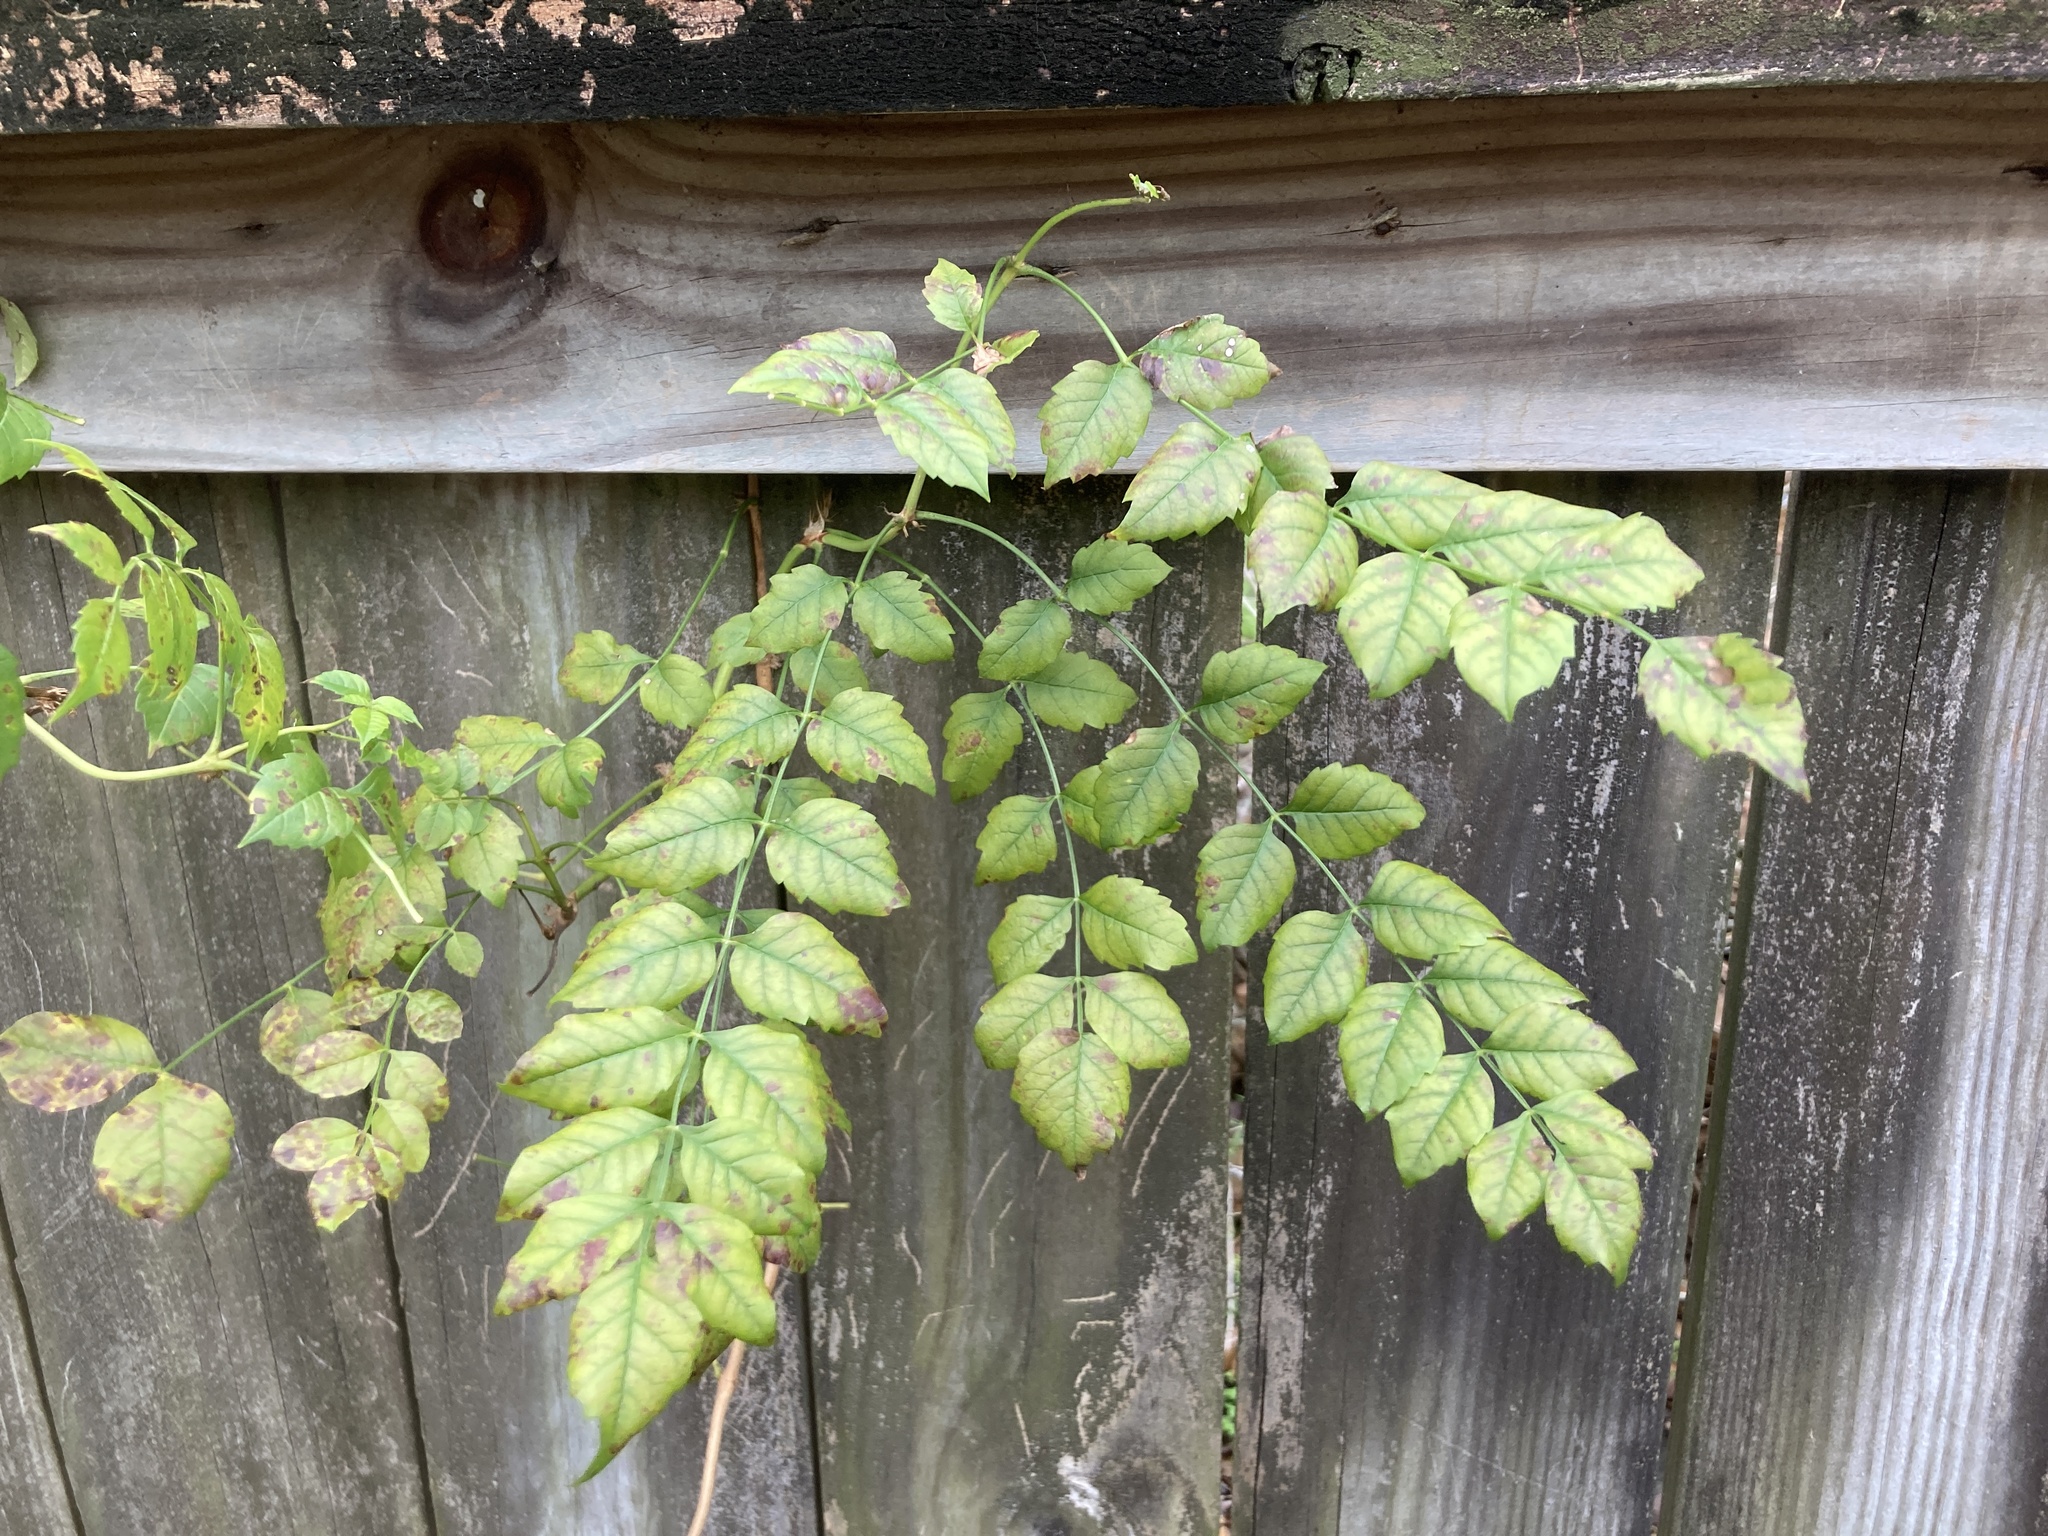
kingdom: Plantae
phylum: Tracheophyta
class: Magnoliopsida
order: Lamiales
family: Bignoniaceae
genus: Campsis
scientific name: Campsis radicans
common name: Trumpet-creeper
